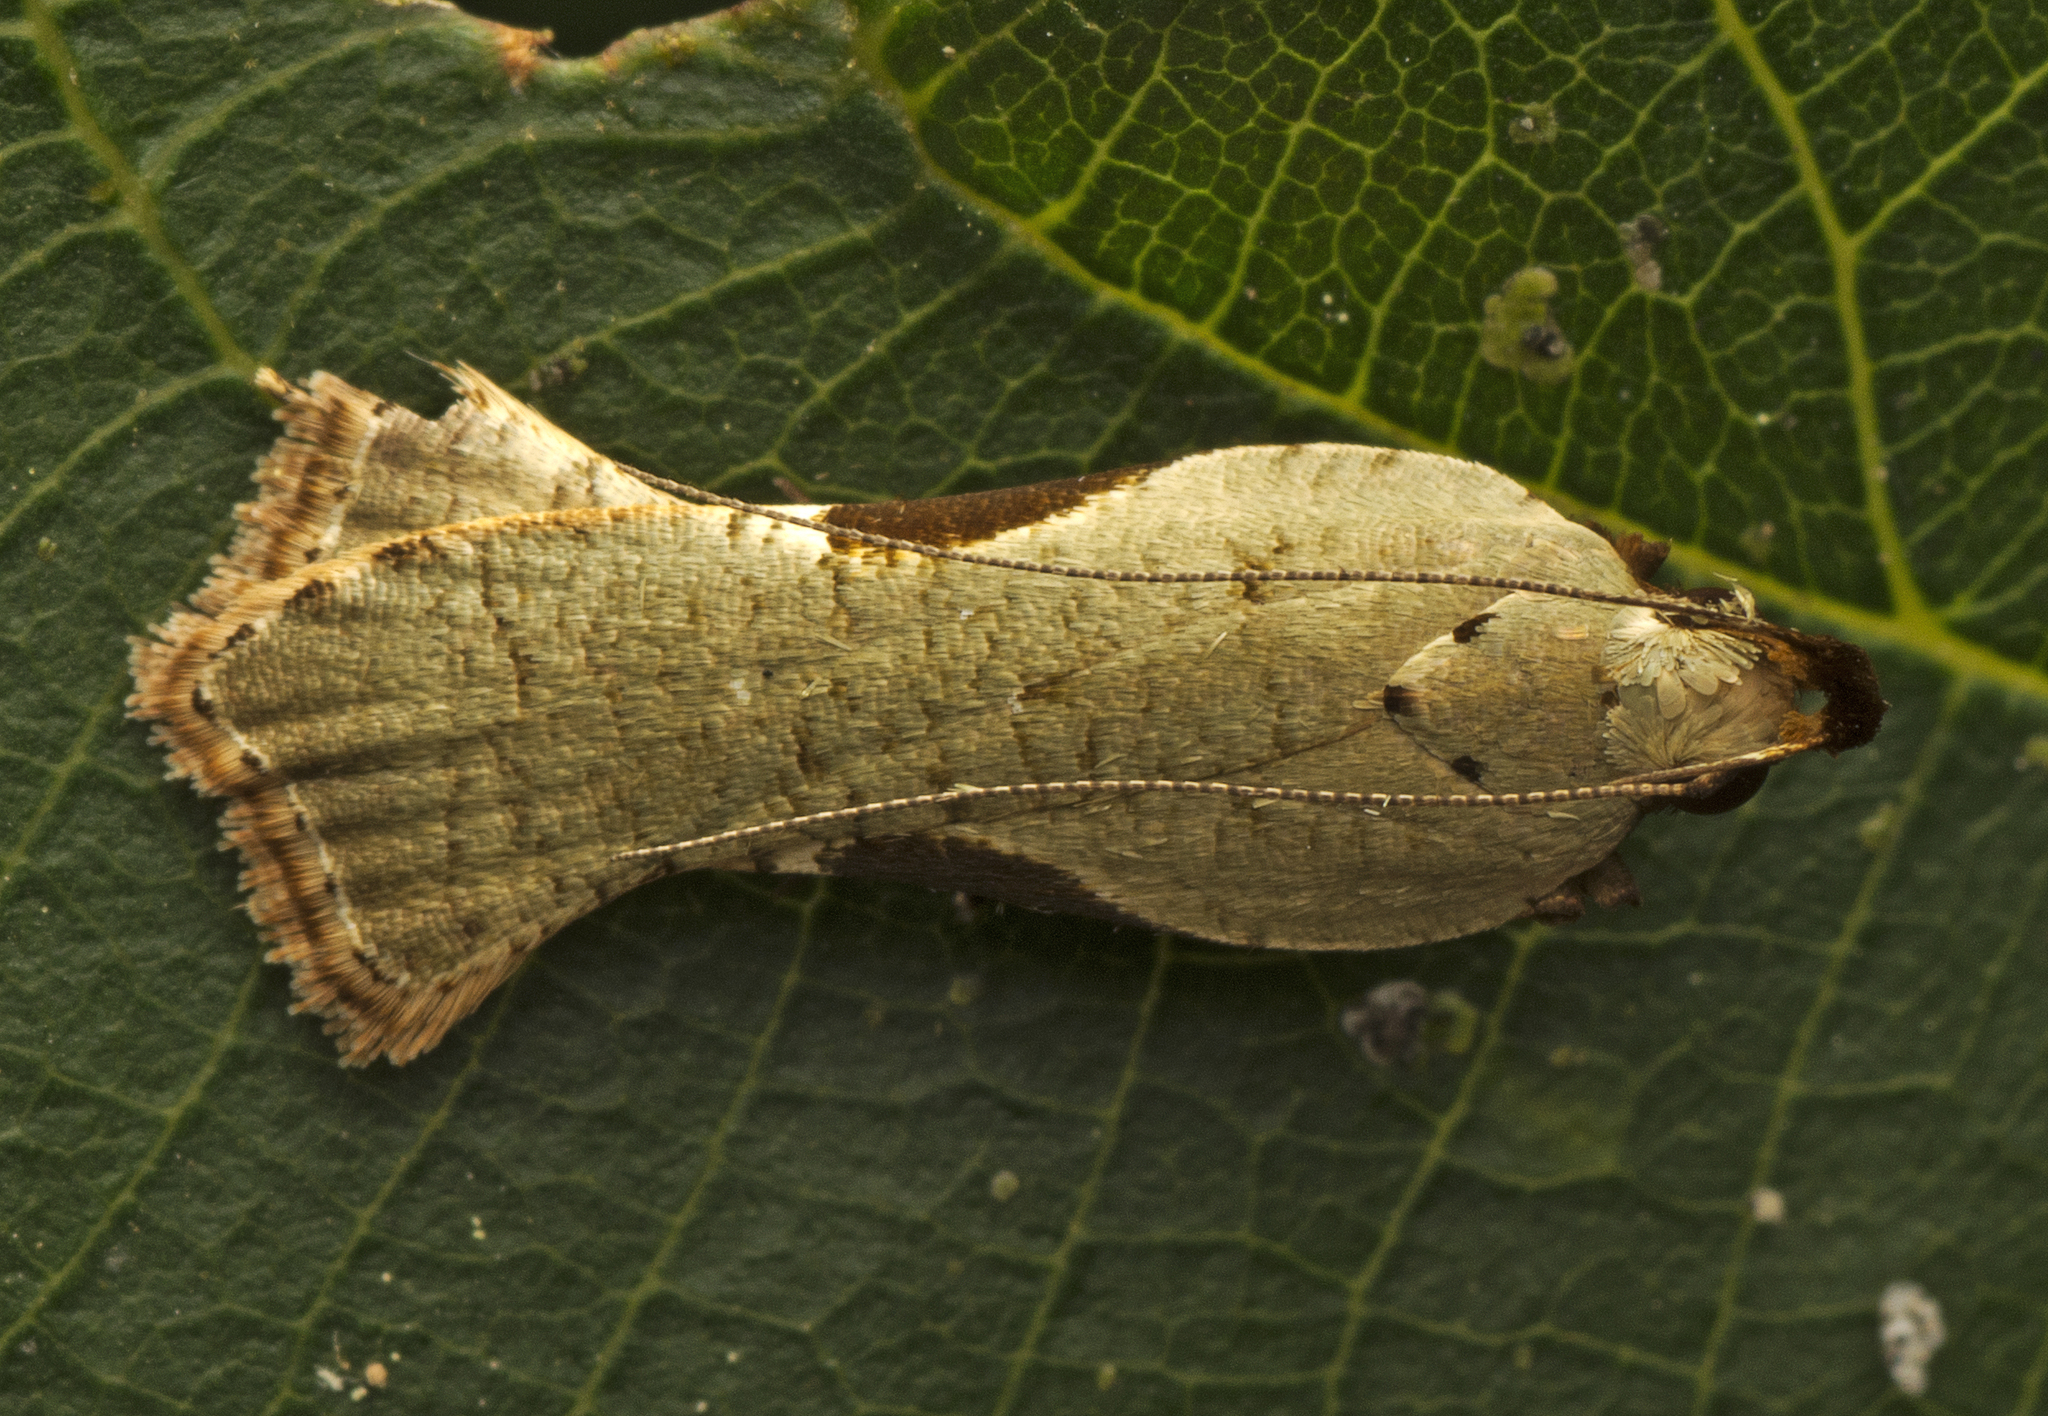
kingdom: Animalia
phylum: Arthropoda
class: Insecta
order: Lepidoptera
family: Gelechiidae
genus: Dichomeris
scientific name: Dichomeris ochreoviridella
